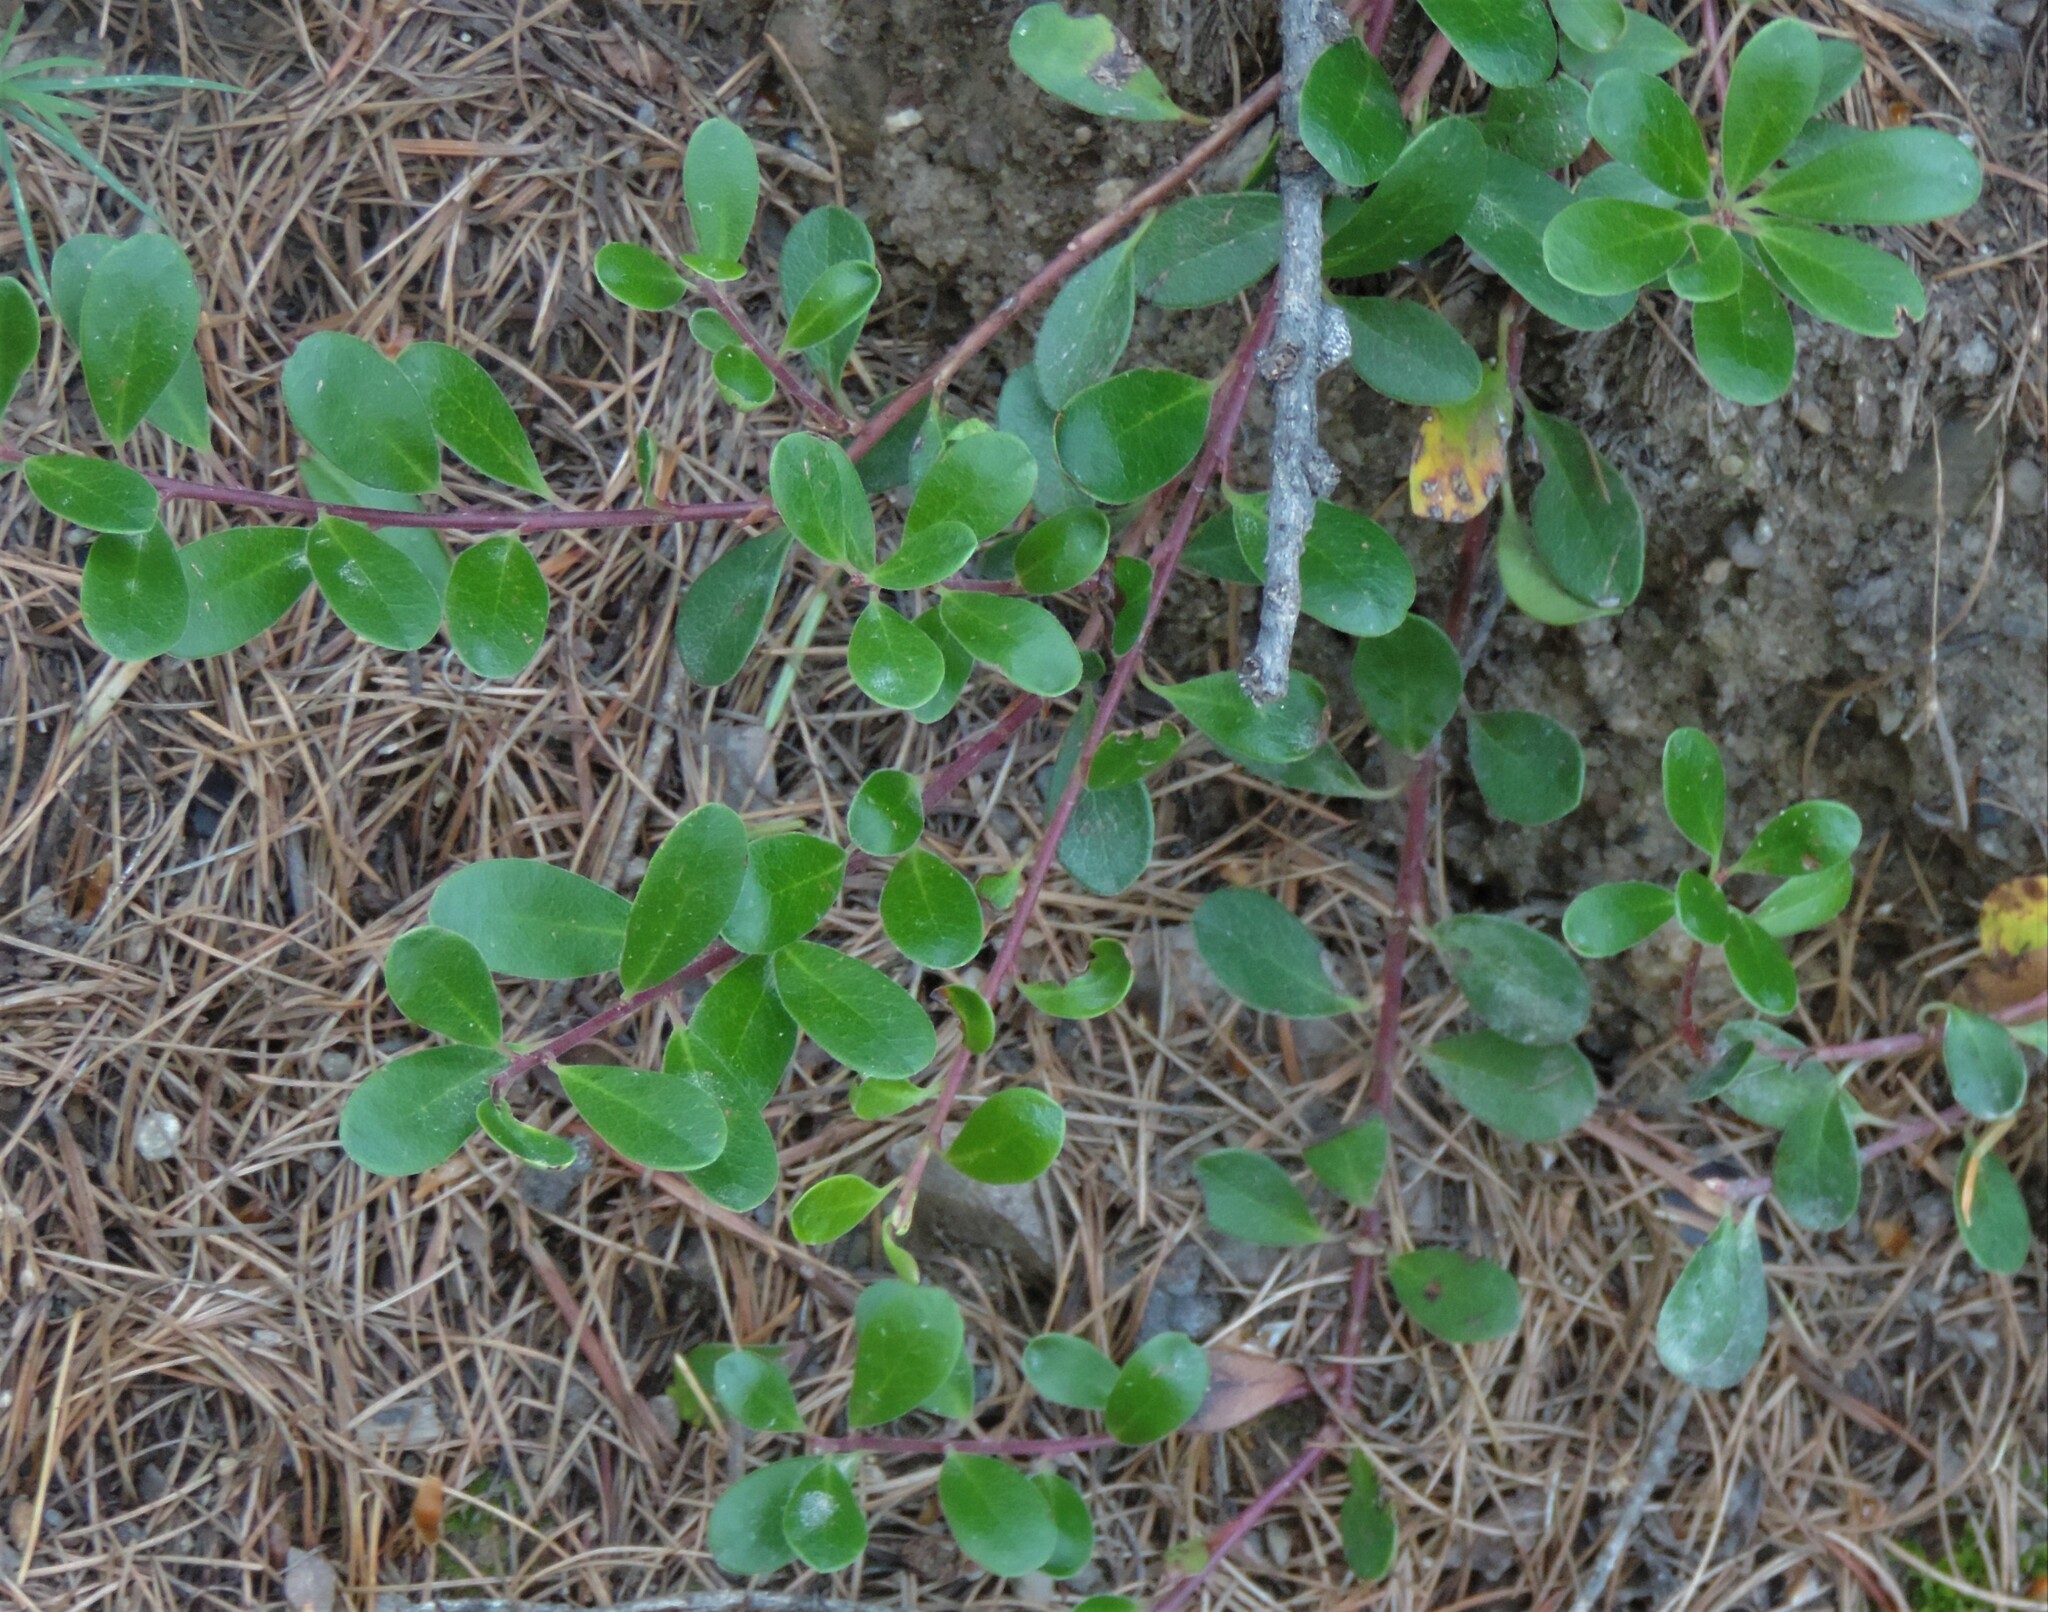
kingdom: Plantae
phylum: Tracheophyta
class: Magnoliopsida
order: Ericales
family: Ericaceae
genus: Arctostaphylos
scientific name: Arctostaphylos uva-ursi
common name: Bearberry
